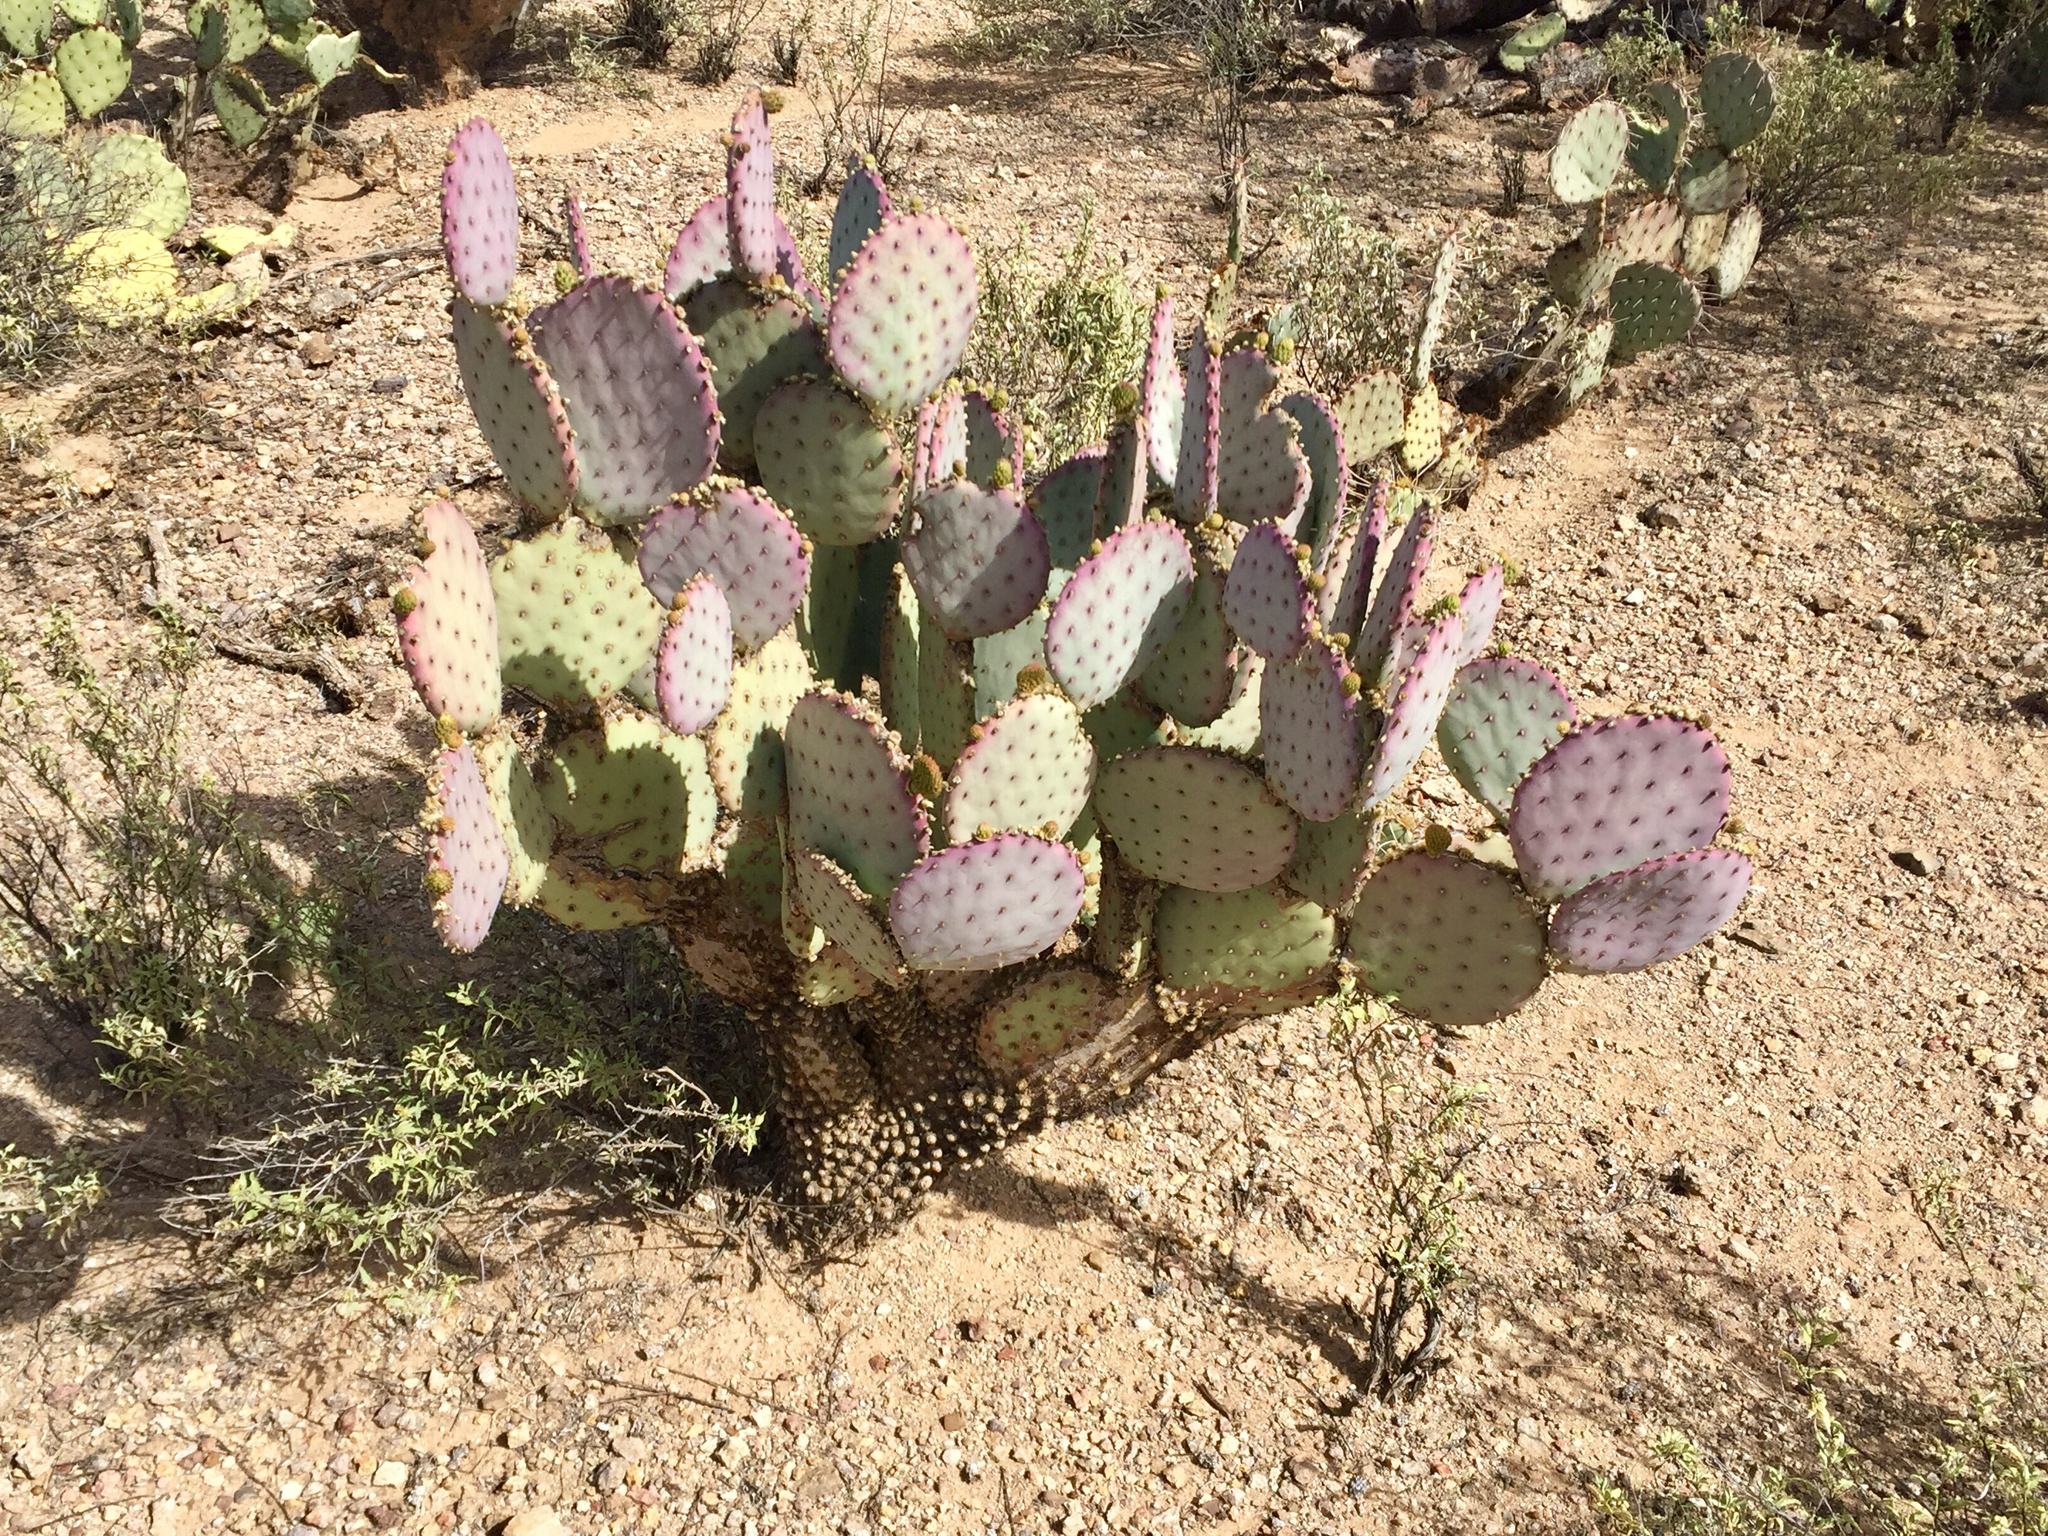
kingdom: Plantae
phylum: Tracheophyta
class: Magnoliopsida
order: Caryophyllales
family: Cactaceae
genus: Opuntia
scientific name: Opuntia gosseliniana
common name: Violet prickly-pear
